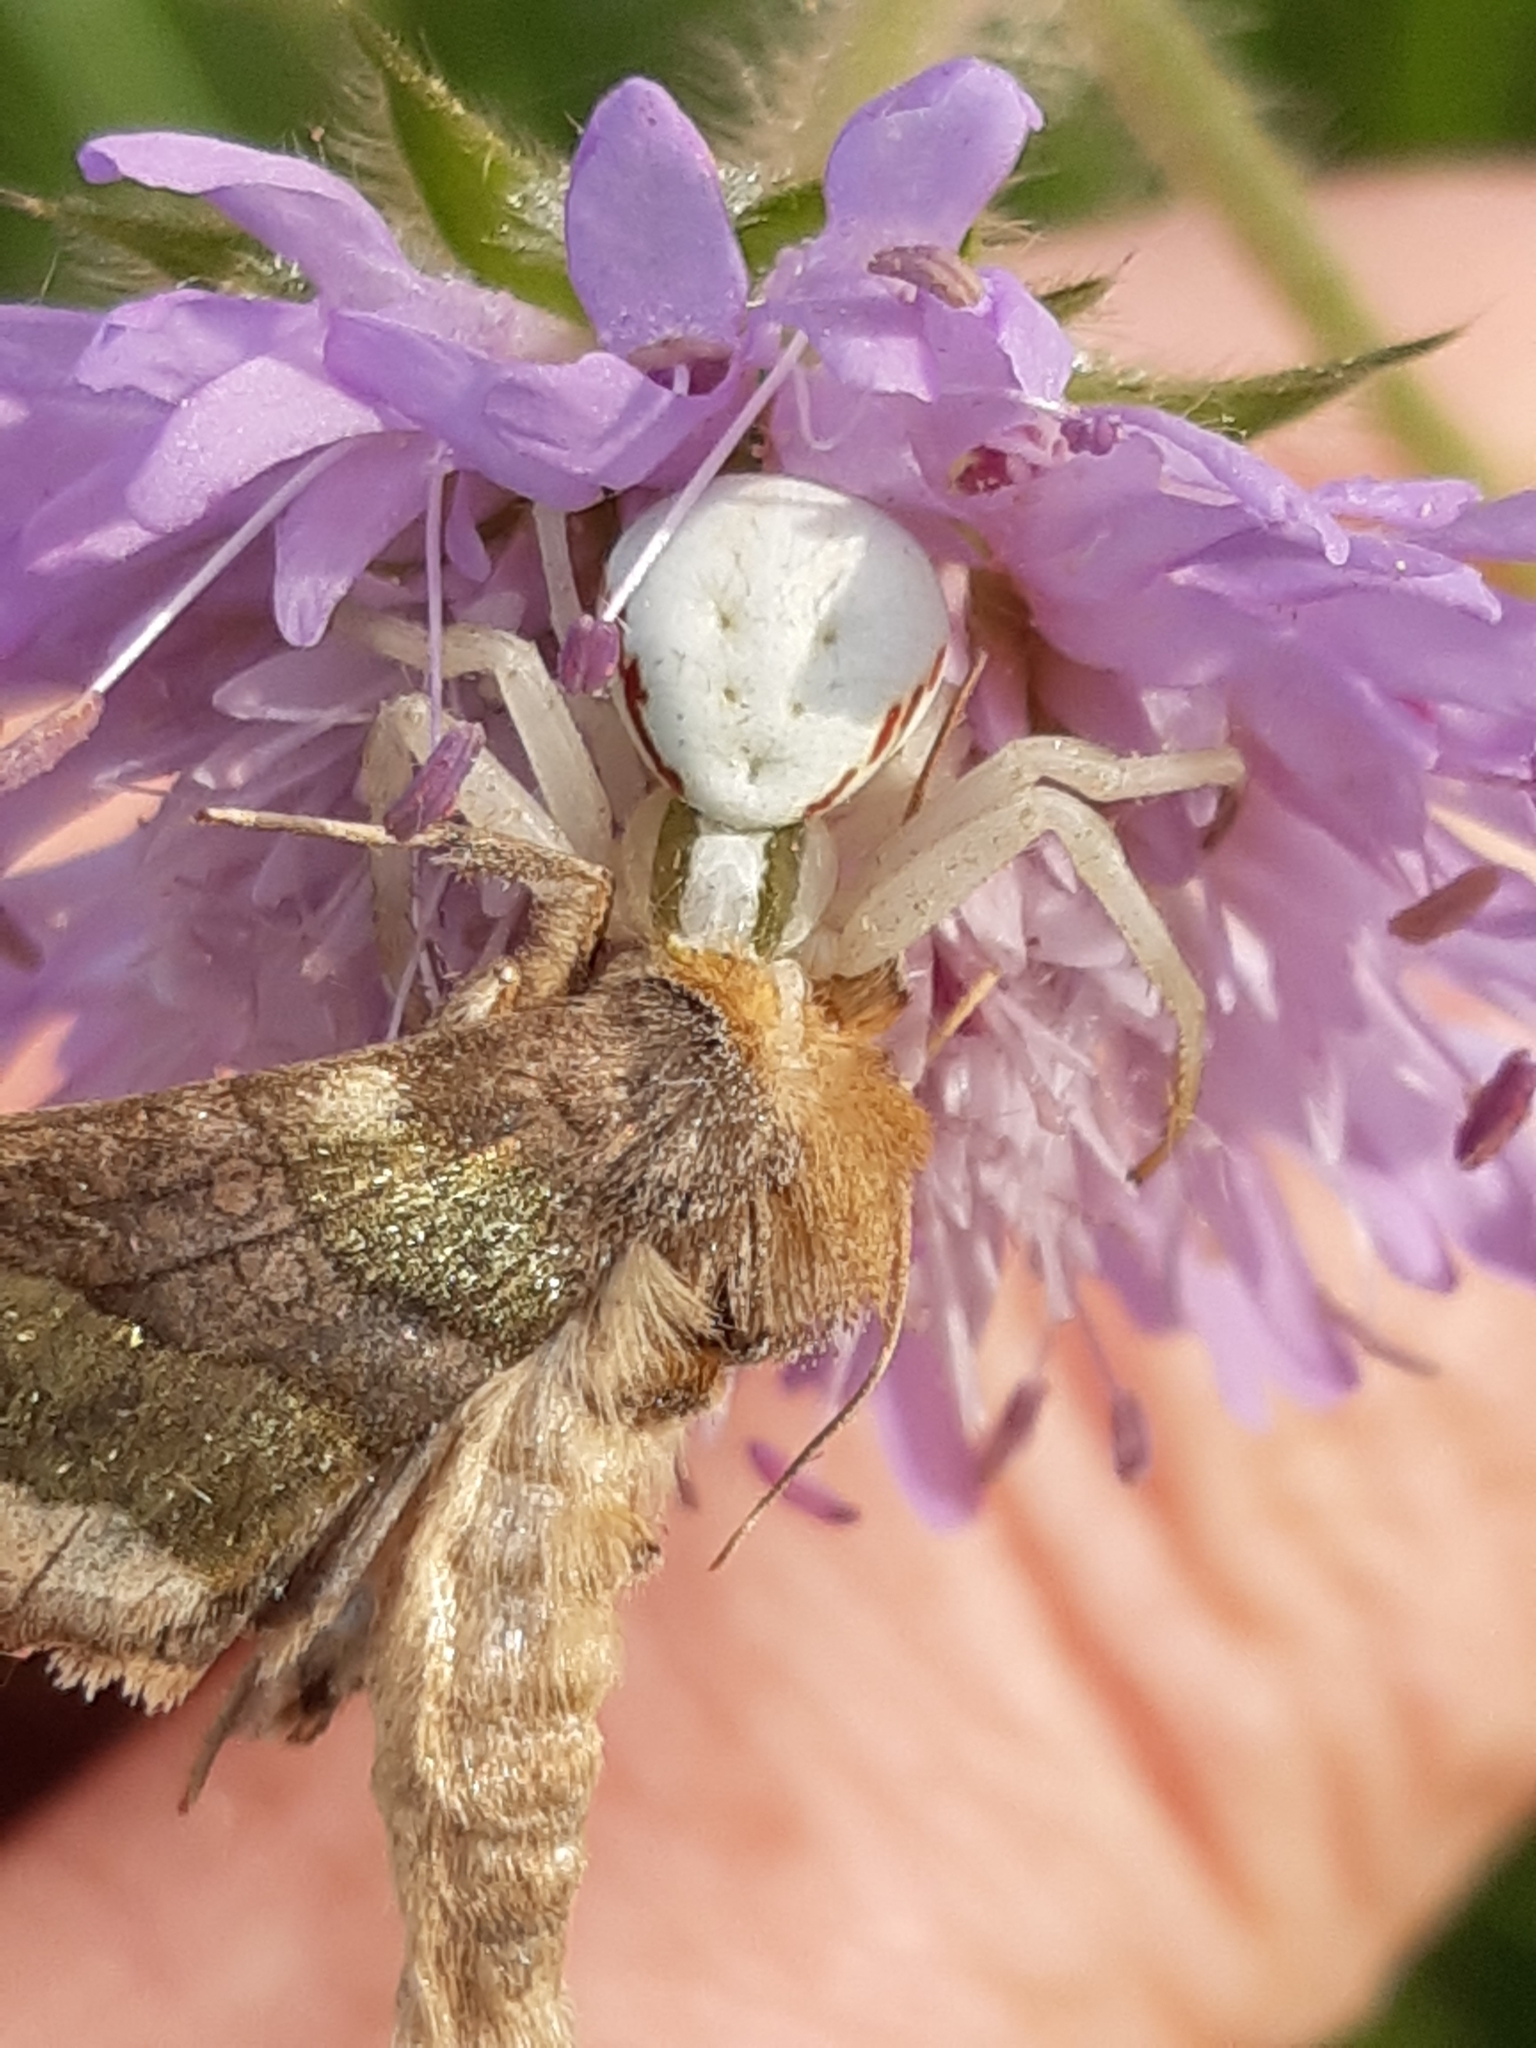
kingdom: Animalia
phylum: Arthropoda
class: Arachnida
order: Araneae
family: Thomisidae
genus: Misumena
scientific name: Misumena vatia
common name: Goldenrod crab spider
